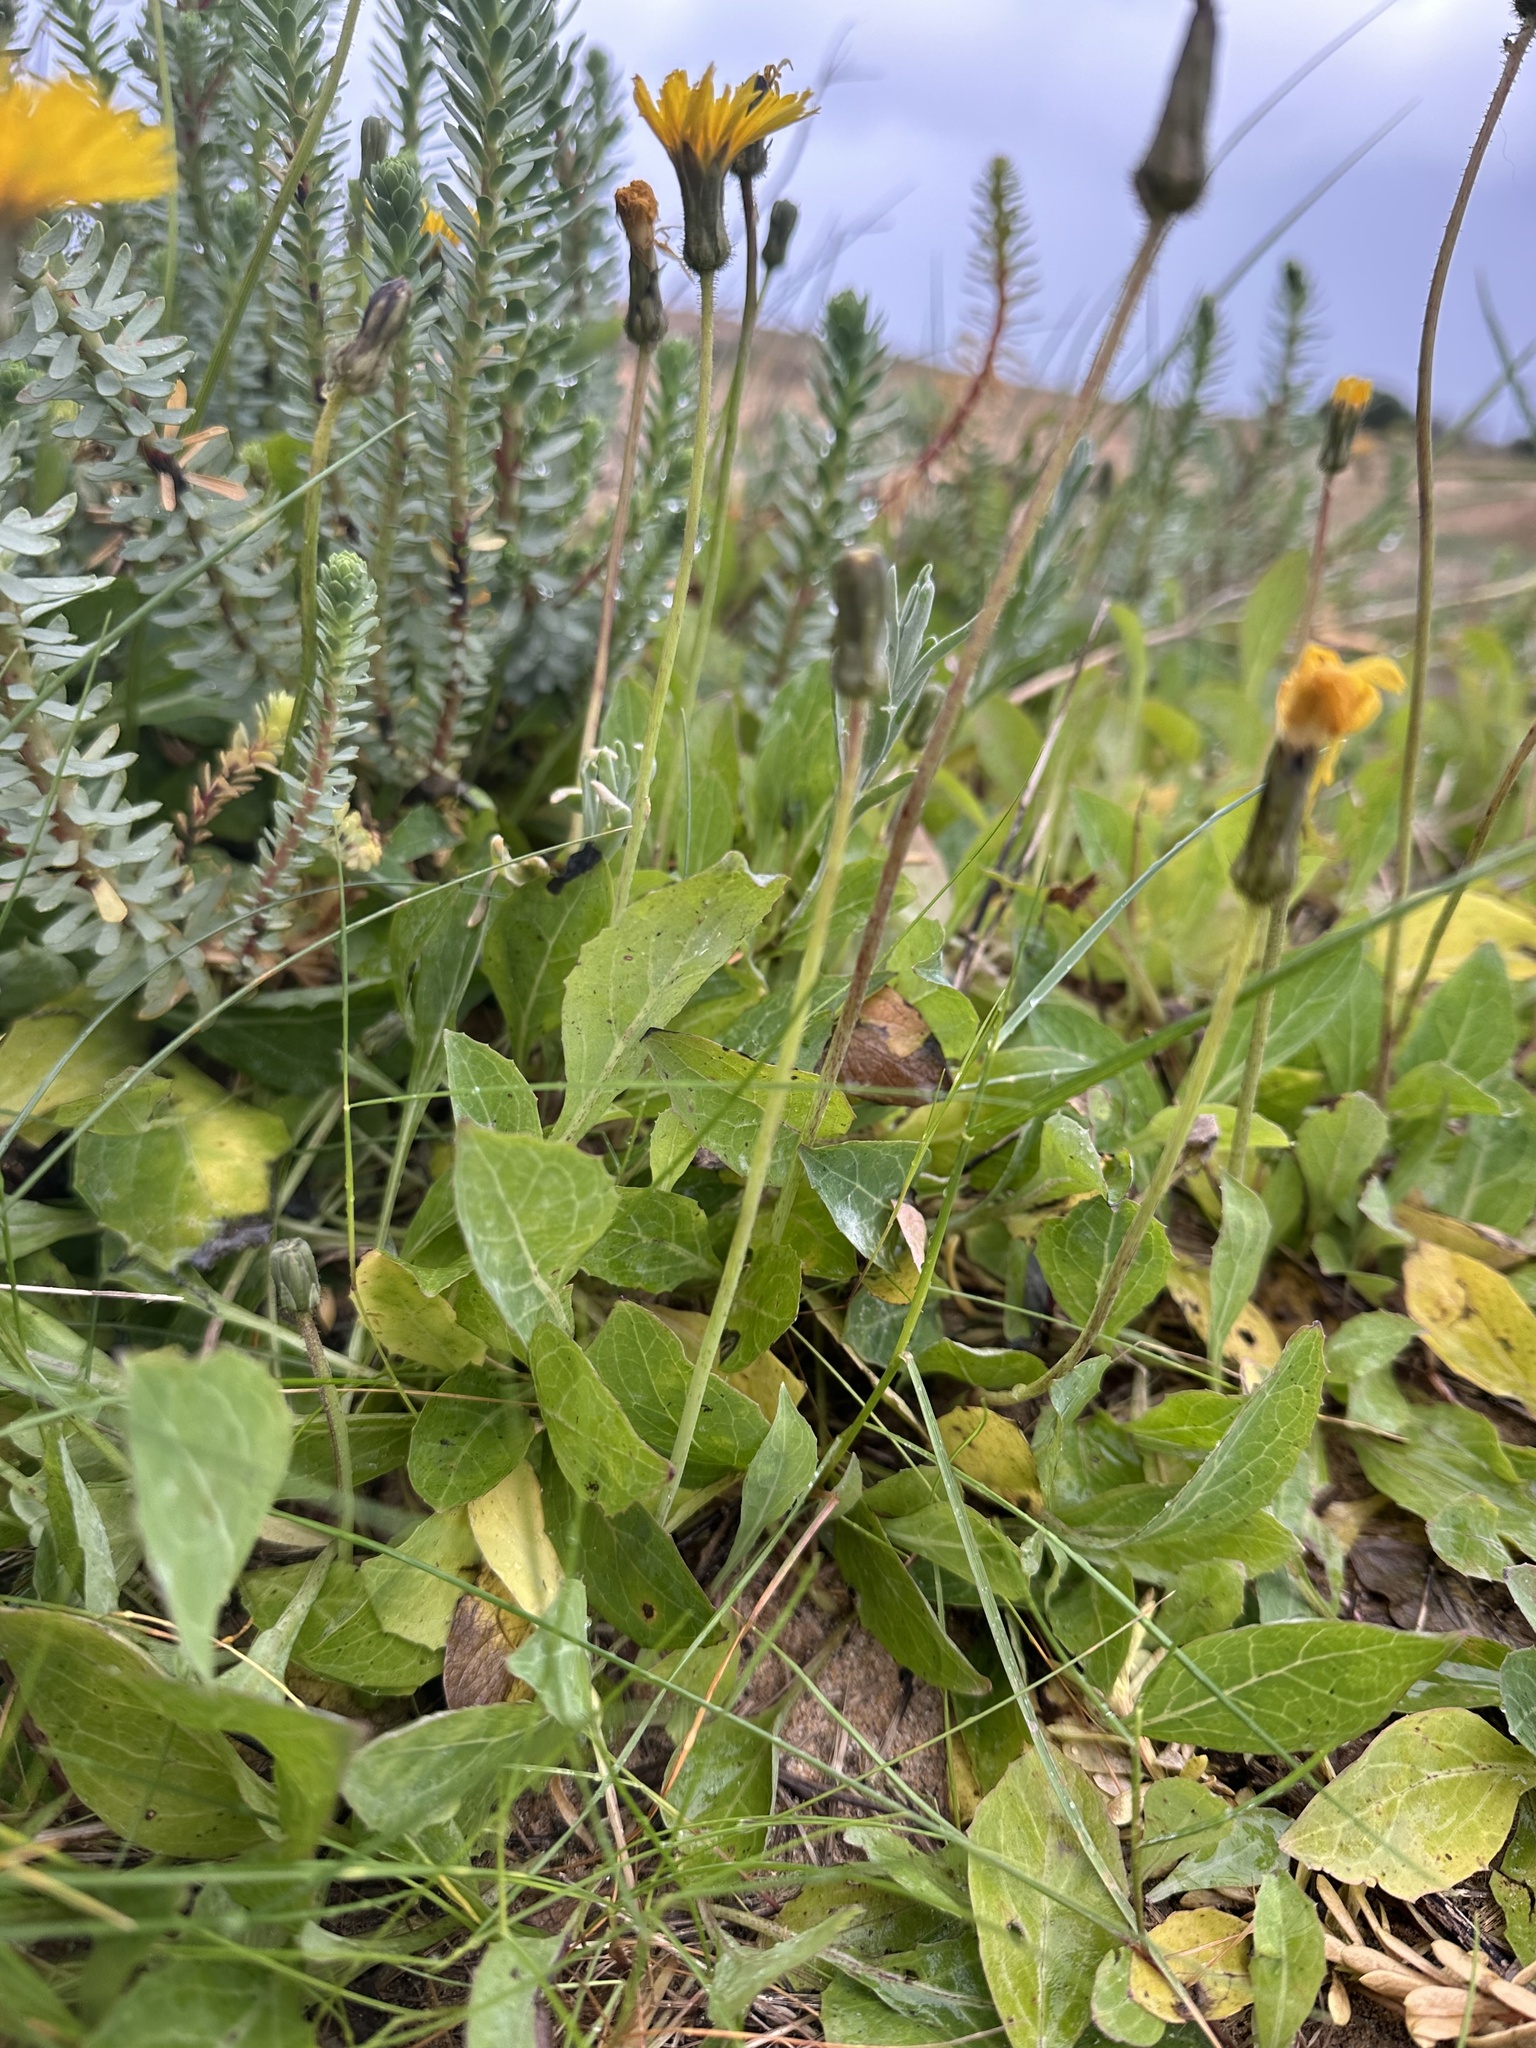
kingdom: Plantae
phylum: Tracheophyta
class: Magnoliopsida
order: Asterales
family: Asteraceae
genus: Aetheorhiza
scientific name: Aetheorhiza bulbosa
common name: Tuberous hawk's-beard
